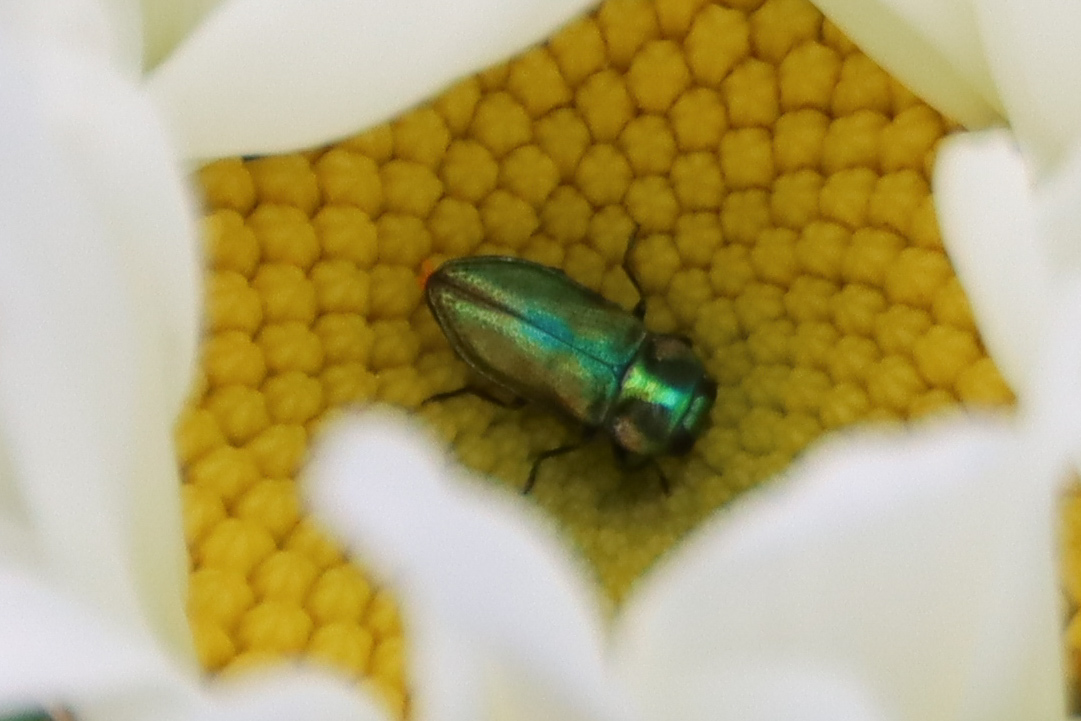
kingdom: Animalia
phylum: Arthropoda
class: Insecta
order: Coleoptera
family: Buprestidae
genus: Anthaxia
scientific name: Anthaxia fulgurans
